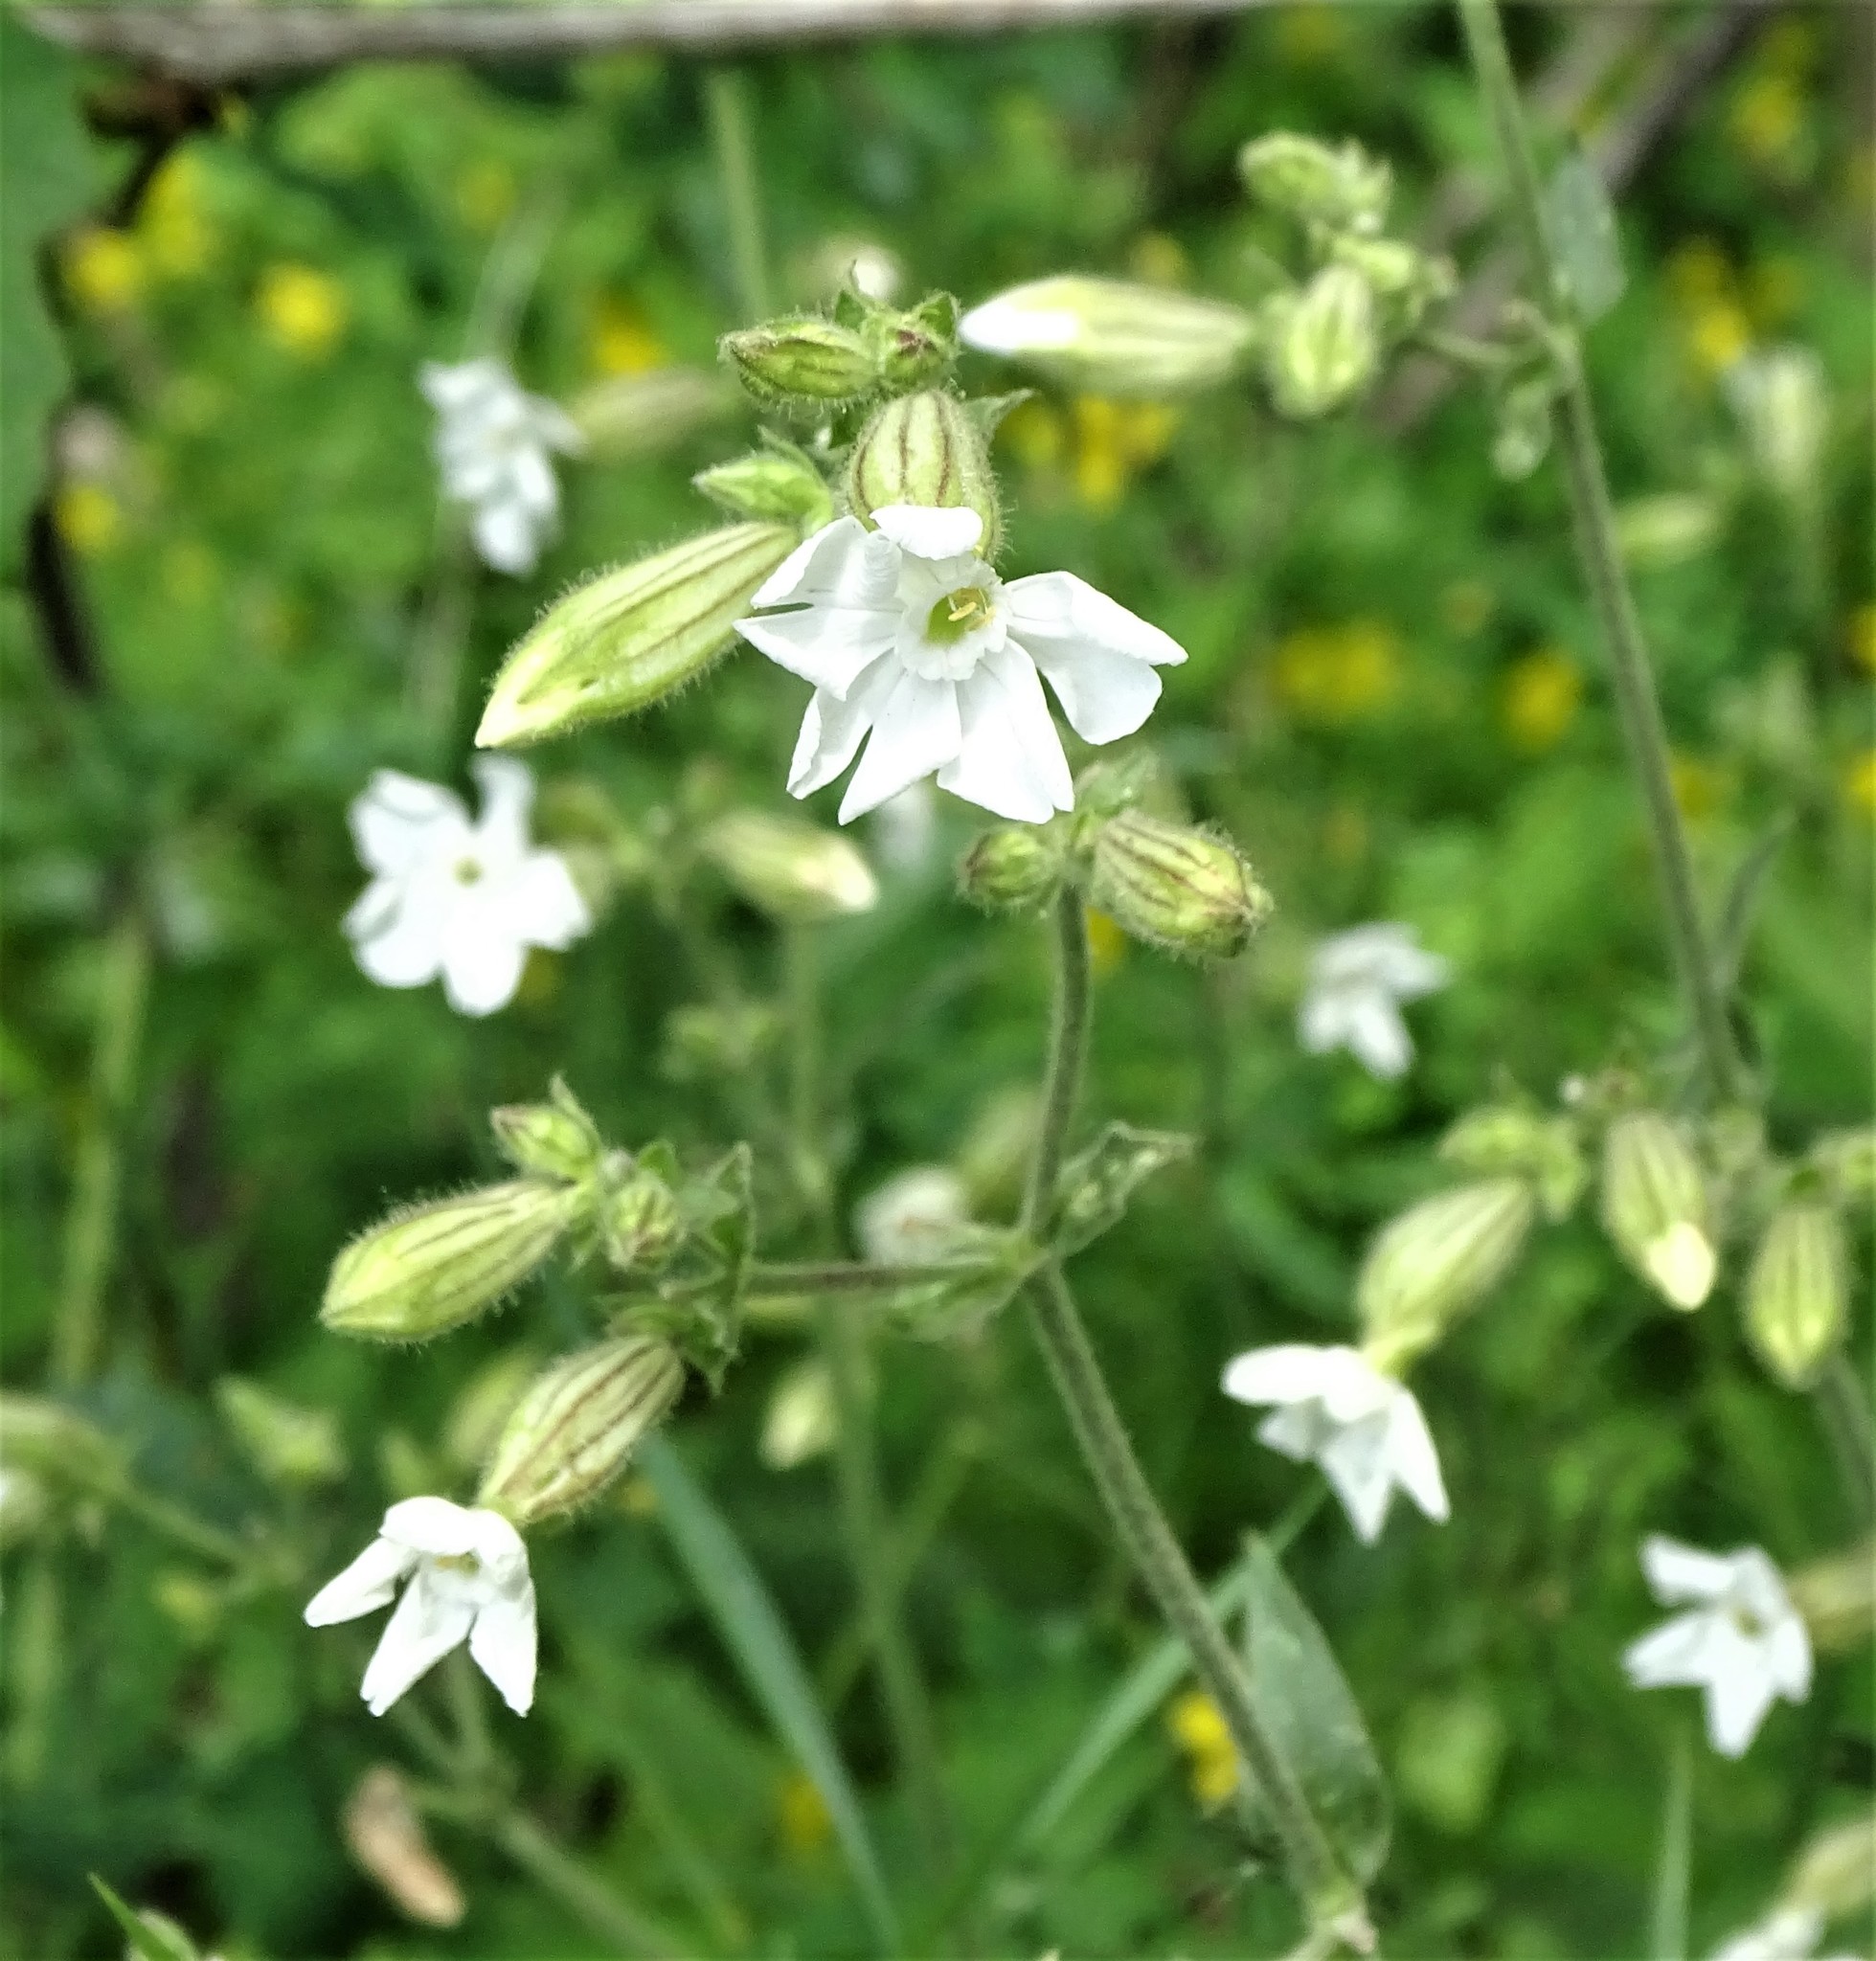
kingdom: Plantae
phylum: Tracheophyta
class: Magnoliopsida
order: Caryophyllales
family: Caryophyllaceae
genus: Silene
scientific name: Silene latifolia
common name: White campion
